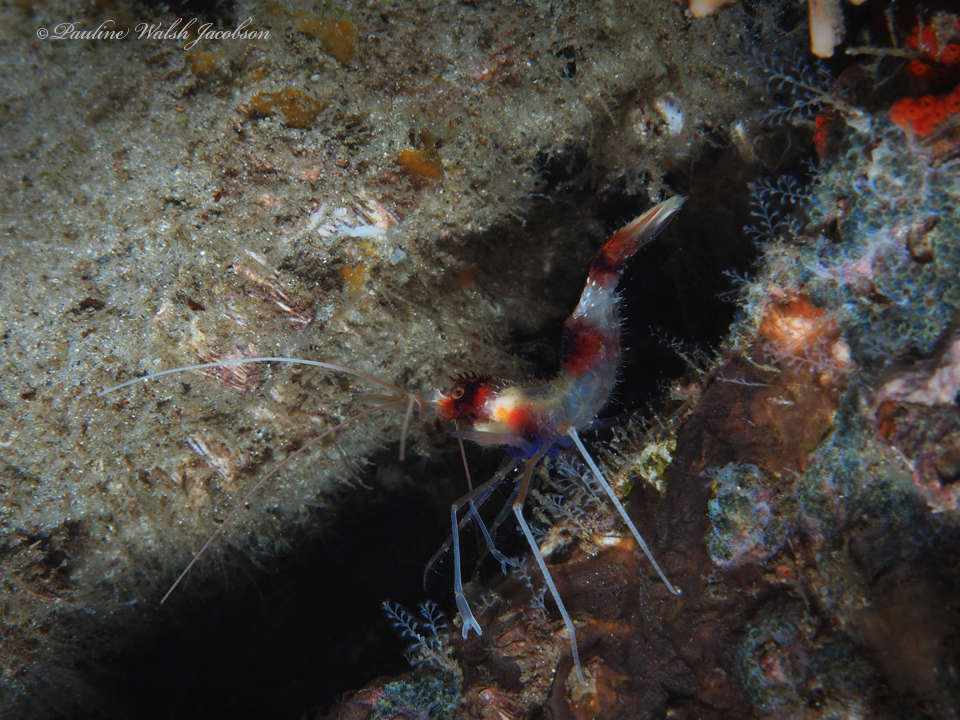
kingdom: Animalia
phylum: Arthropoda
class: Malacostraca
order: Decapoda
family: Stenopodidae
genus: Stenopus
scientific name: Stenopus hispidus
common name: Banded coral shrimp
